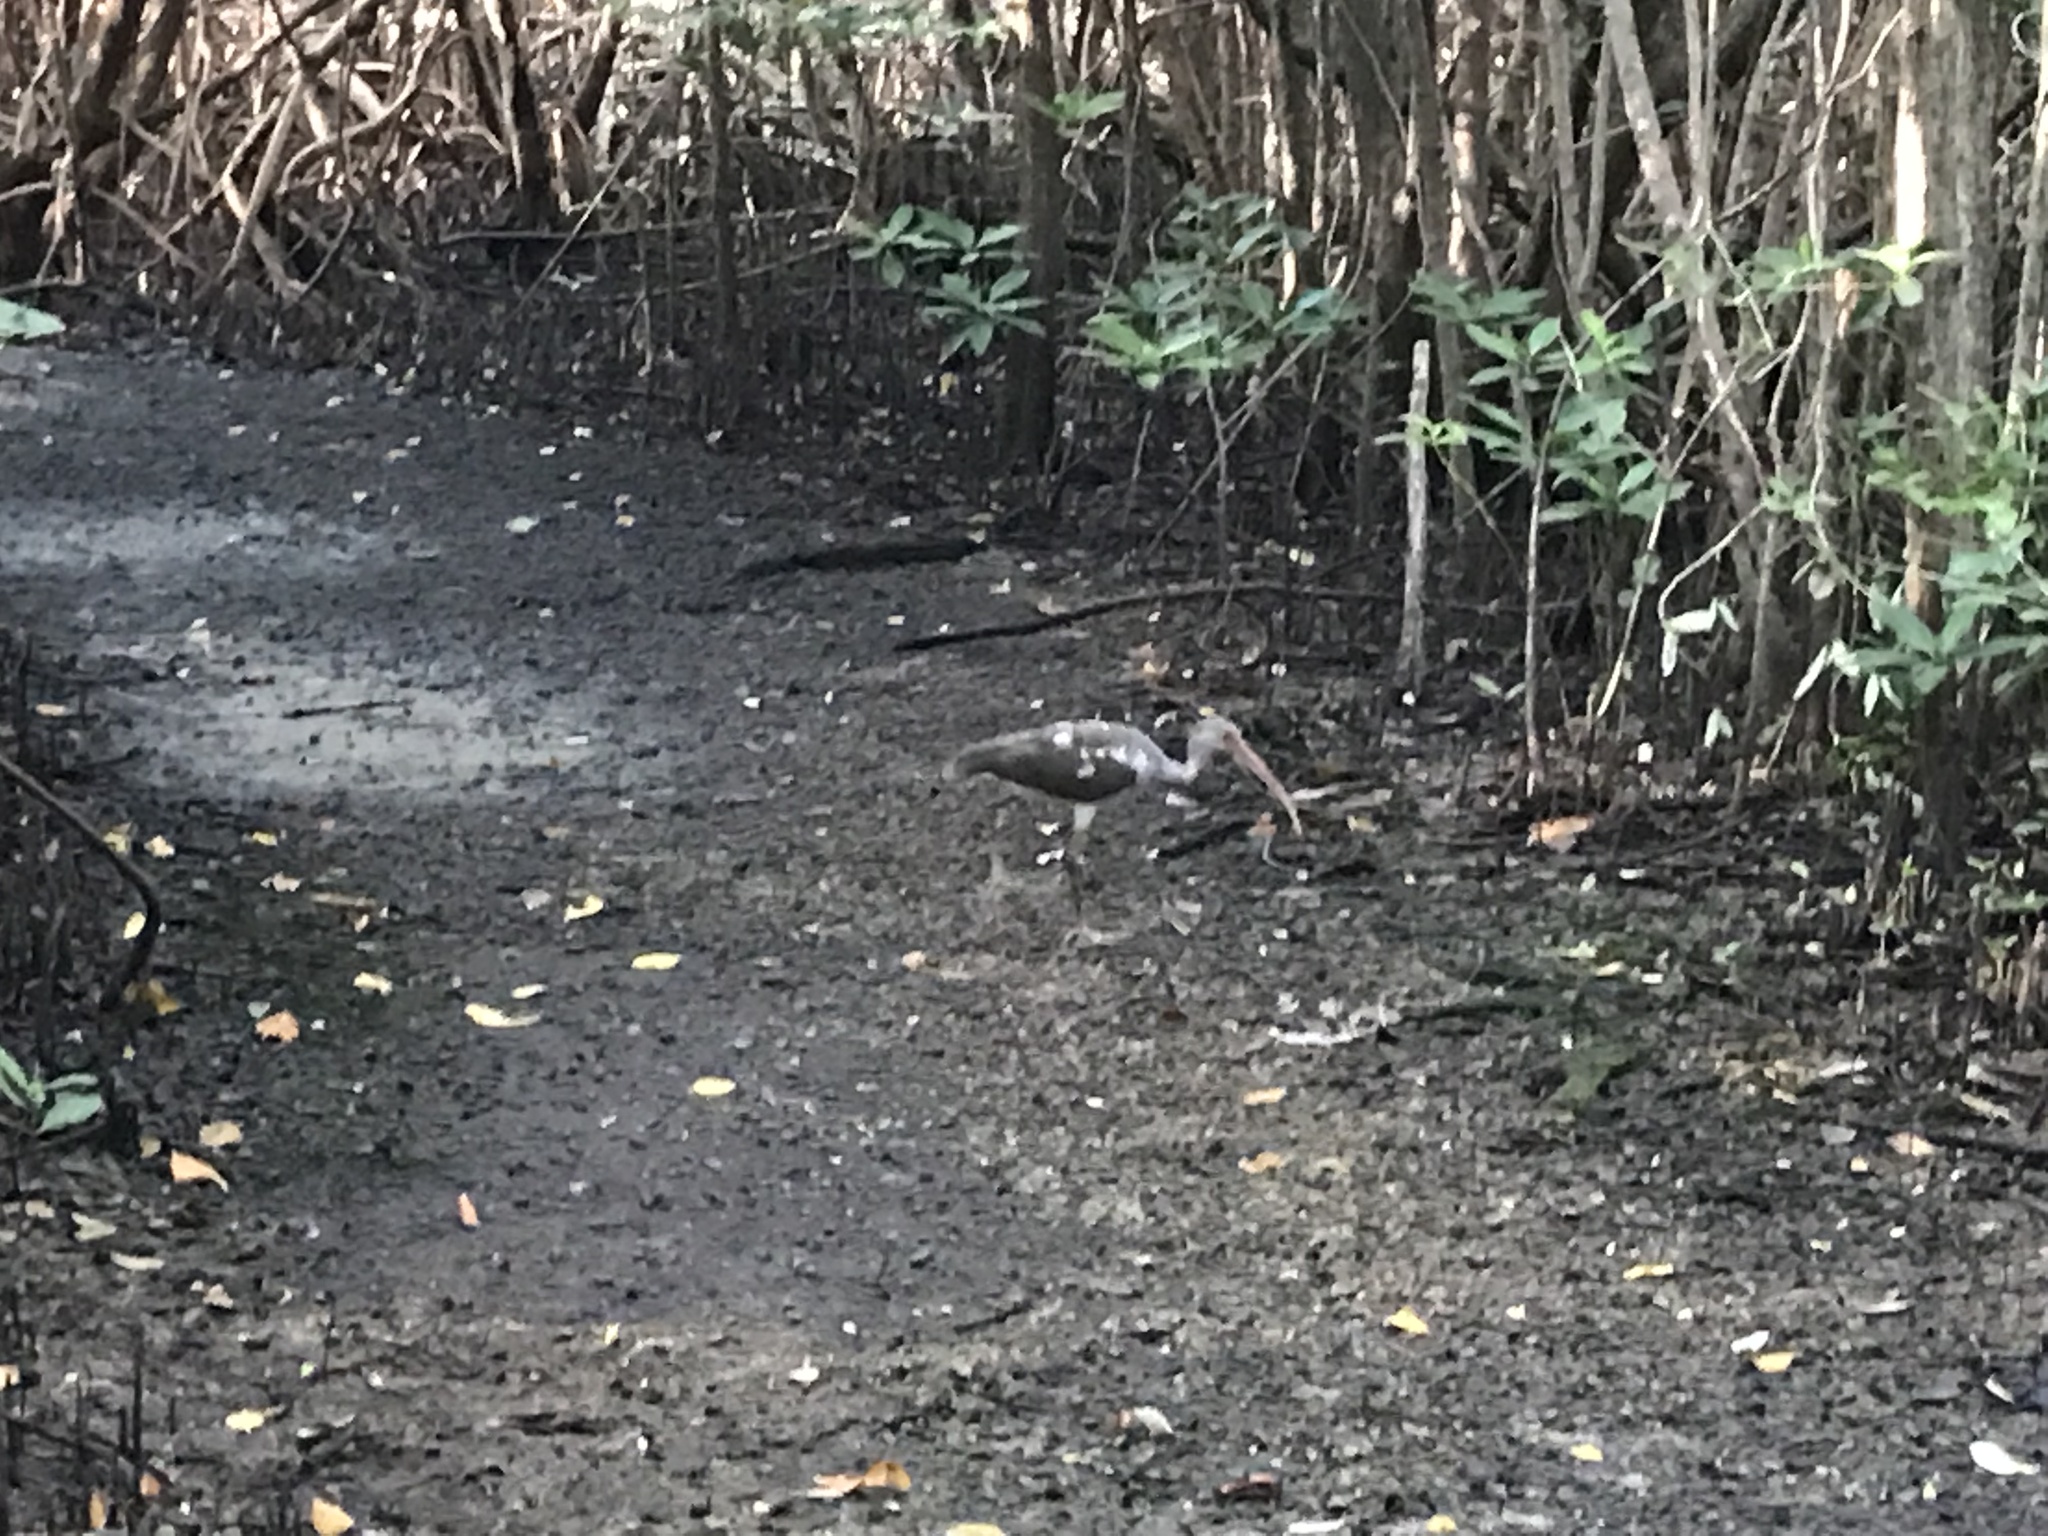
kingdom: Animalia
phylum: Chordata
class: Aves
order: Pelecaniformes
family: Threskiornithidae
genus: Eudocimus
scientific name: Eudocimus albus
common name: White ibis
